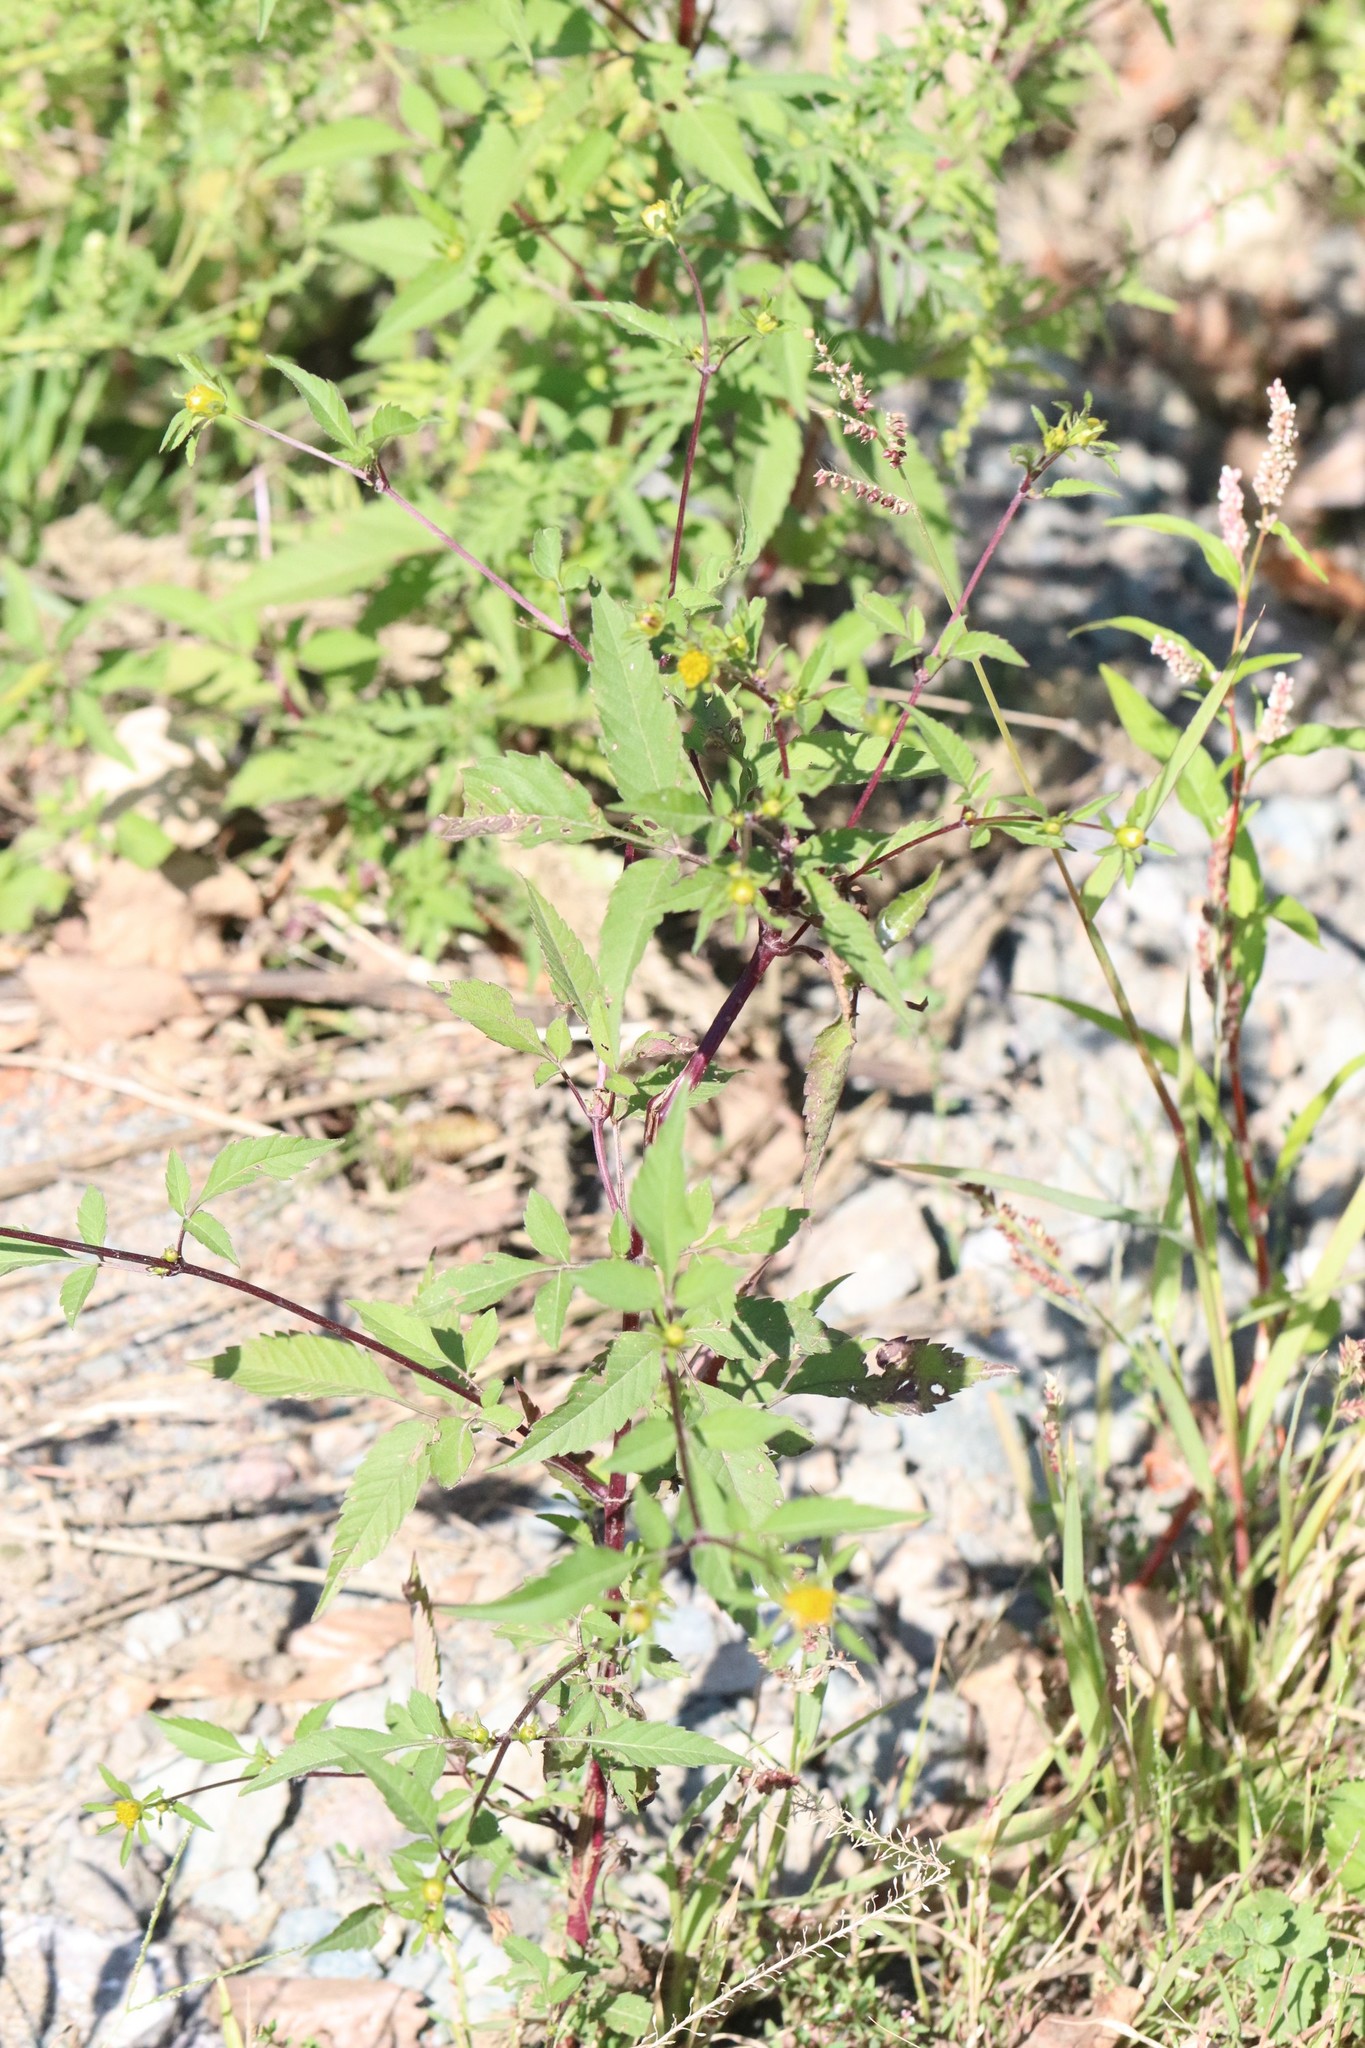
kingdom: Plantae
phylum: Tracheophyta
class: Magnoliopsida
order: Asterales
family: Asteraceae
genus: Bidens
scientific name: Bidens frondosa
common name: Beggarticks
